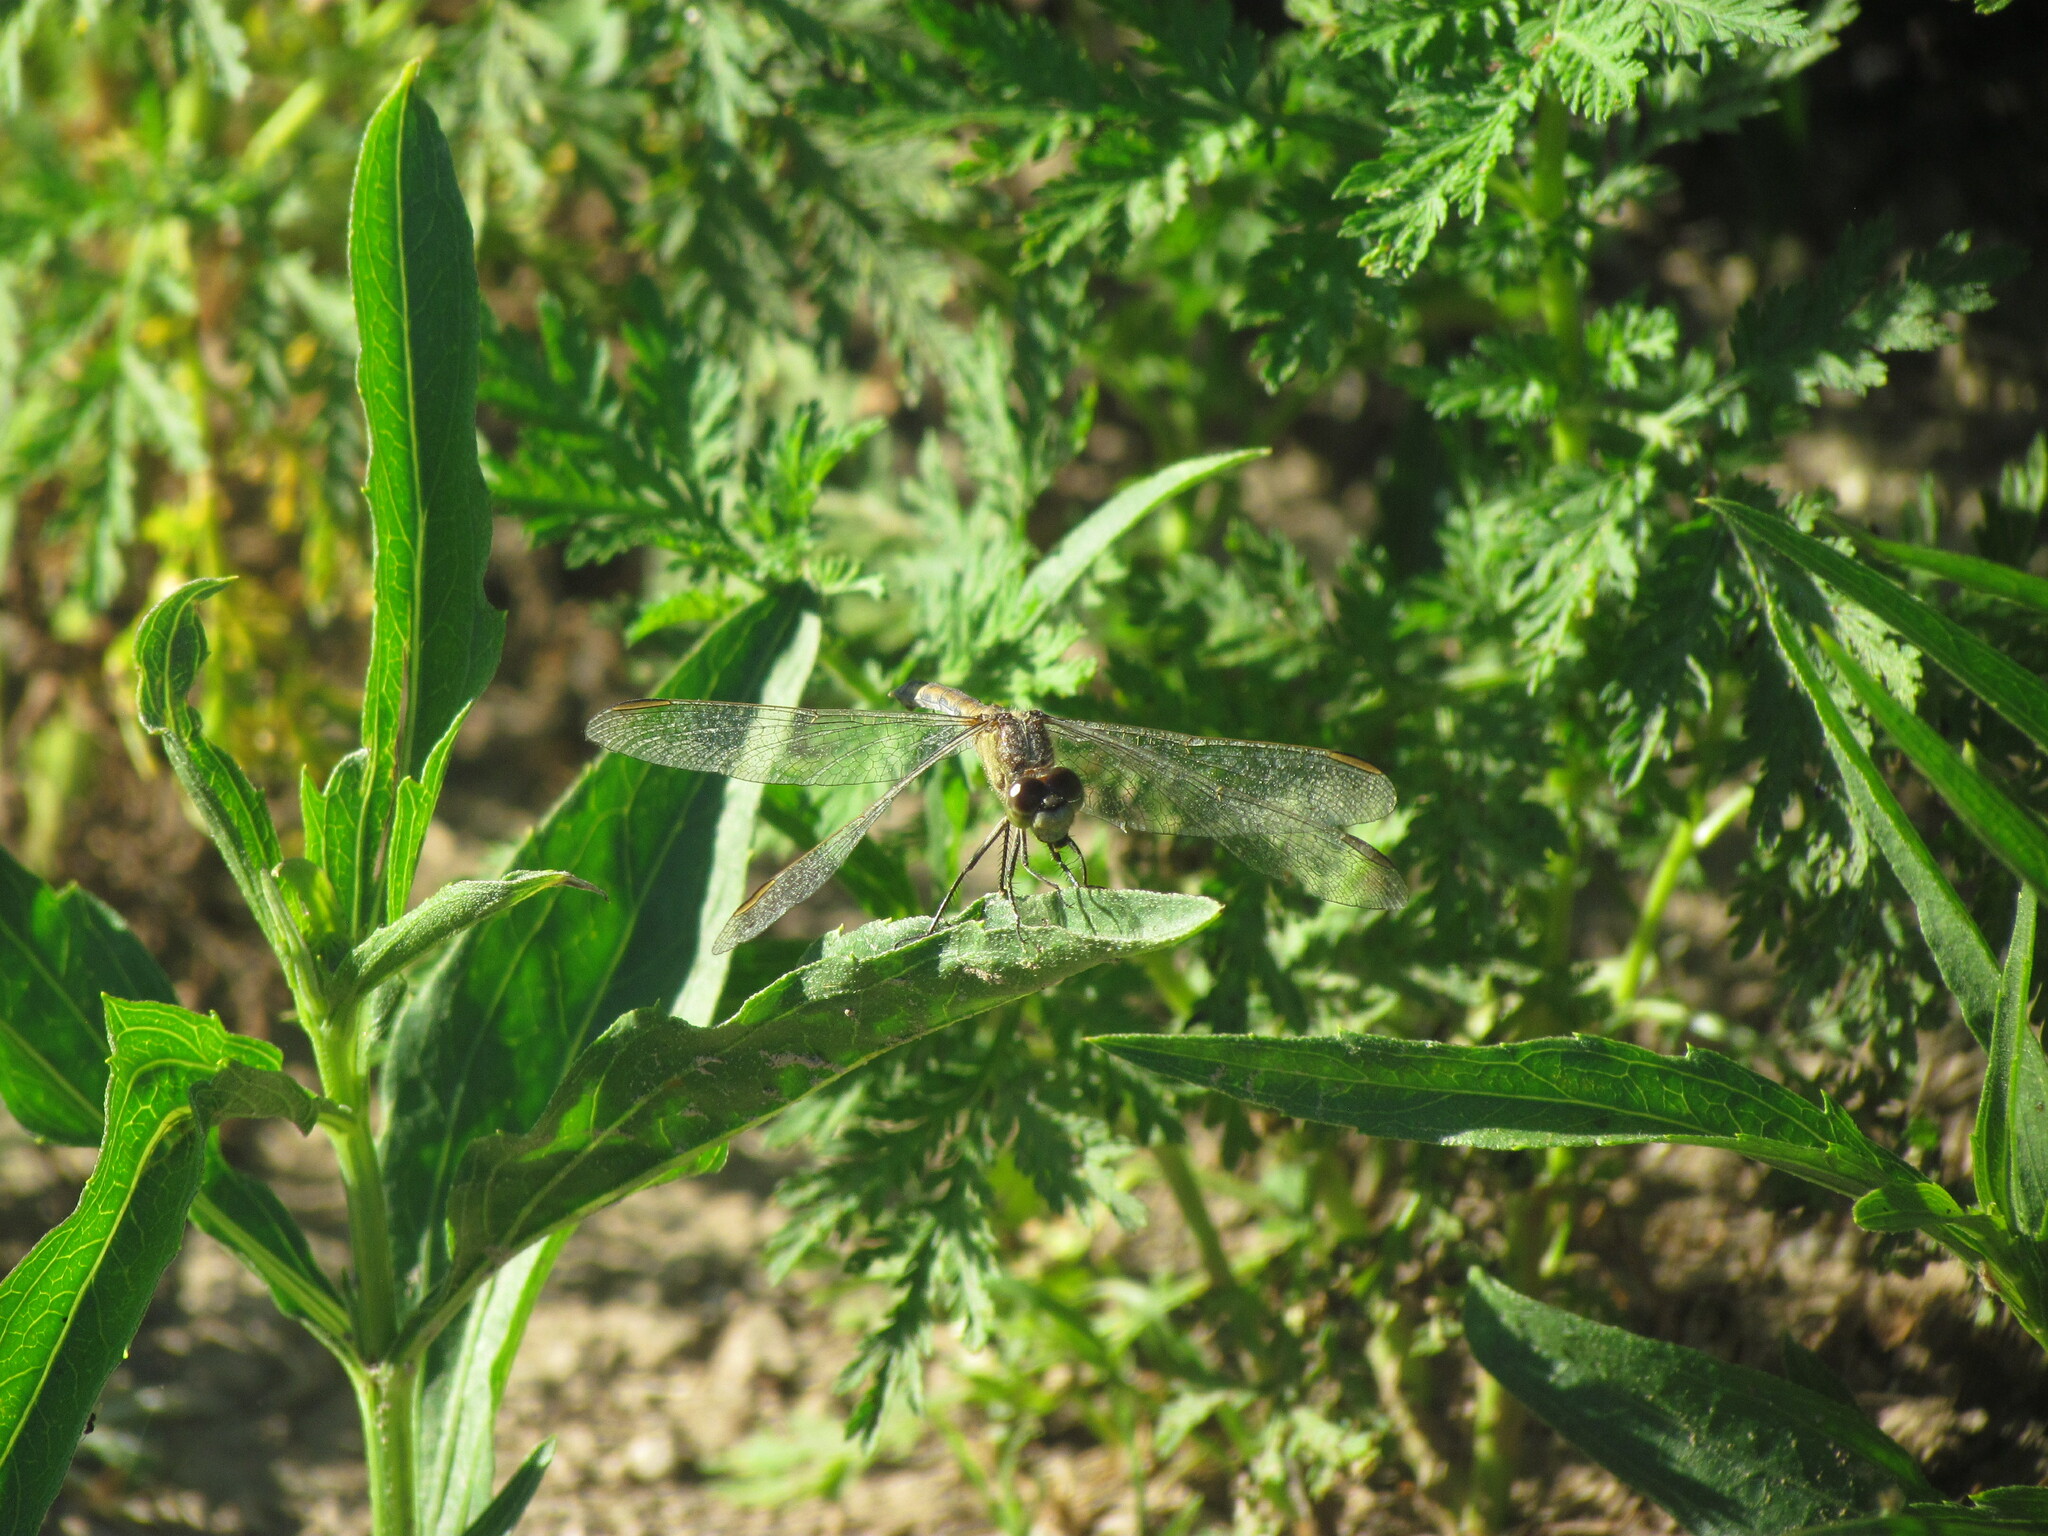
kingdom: Animalia
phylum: Arthropoda
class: Insecta
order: Odonata
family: Libellulidae
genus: Erythrodiplax
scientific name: Erythrodiplax nigricans
